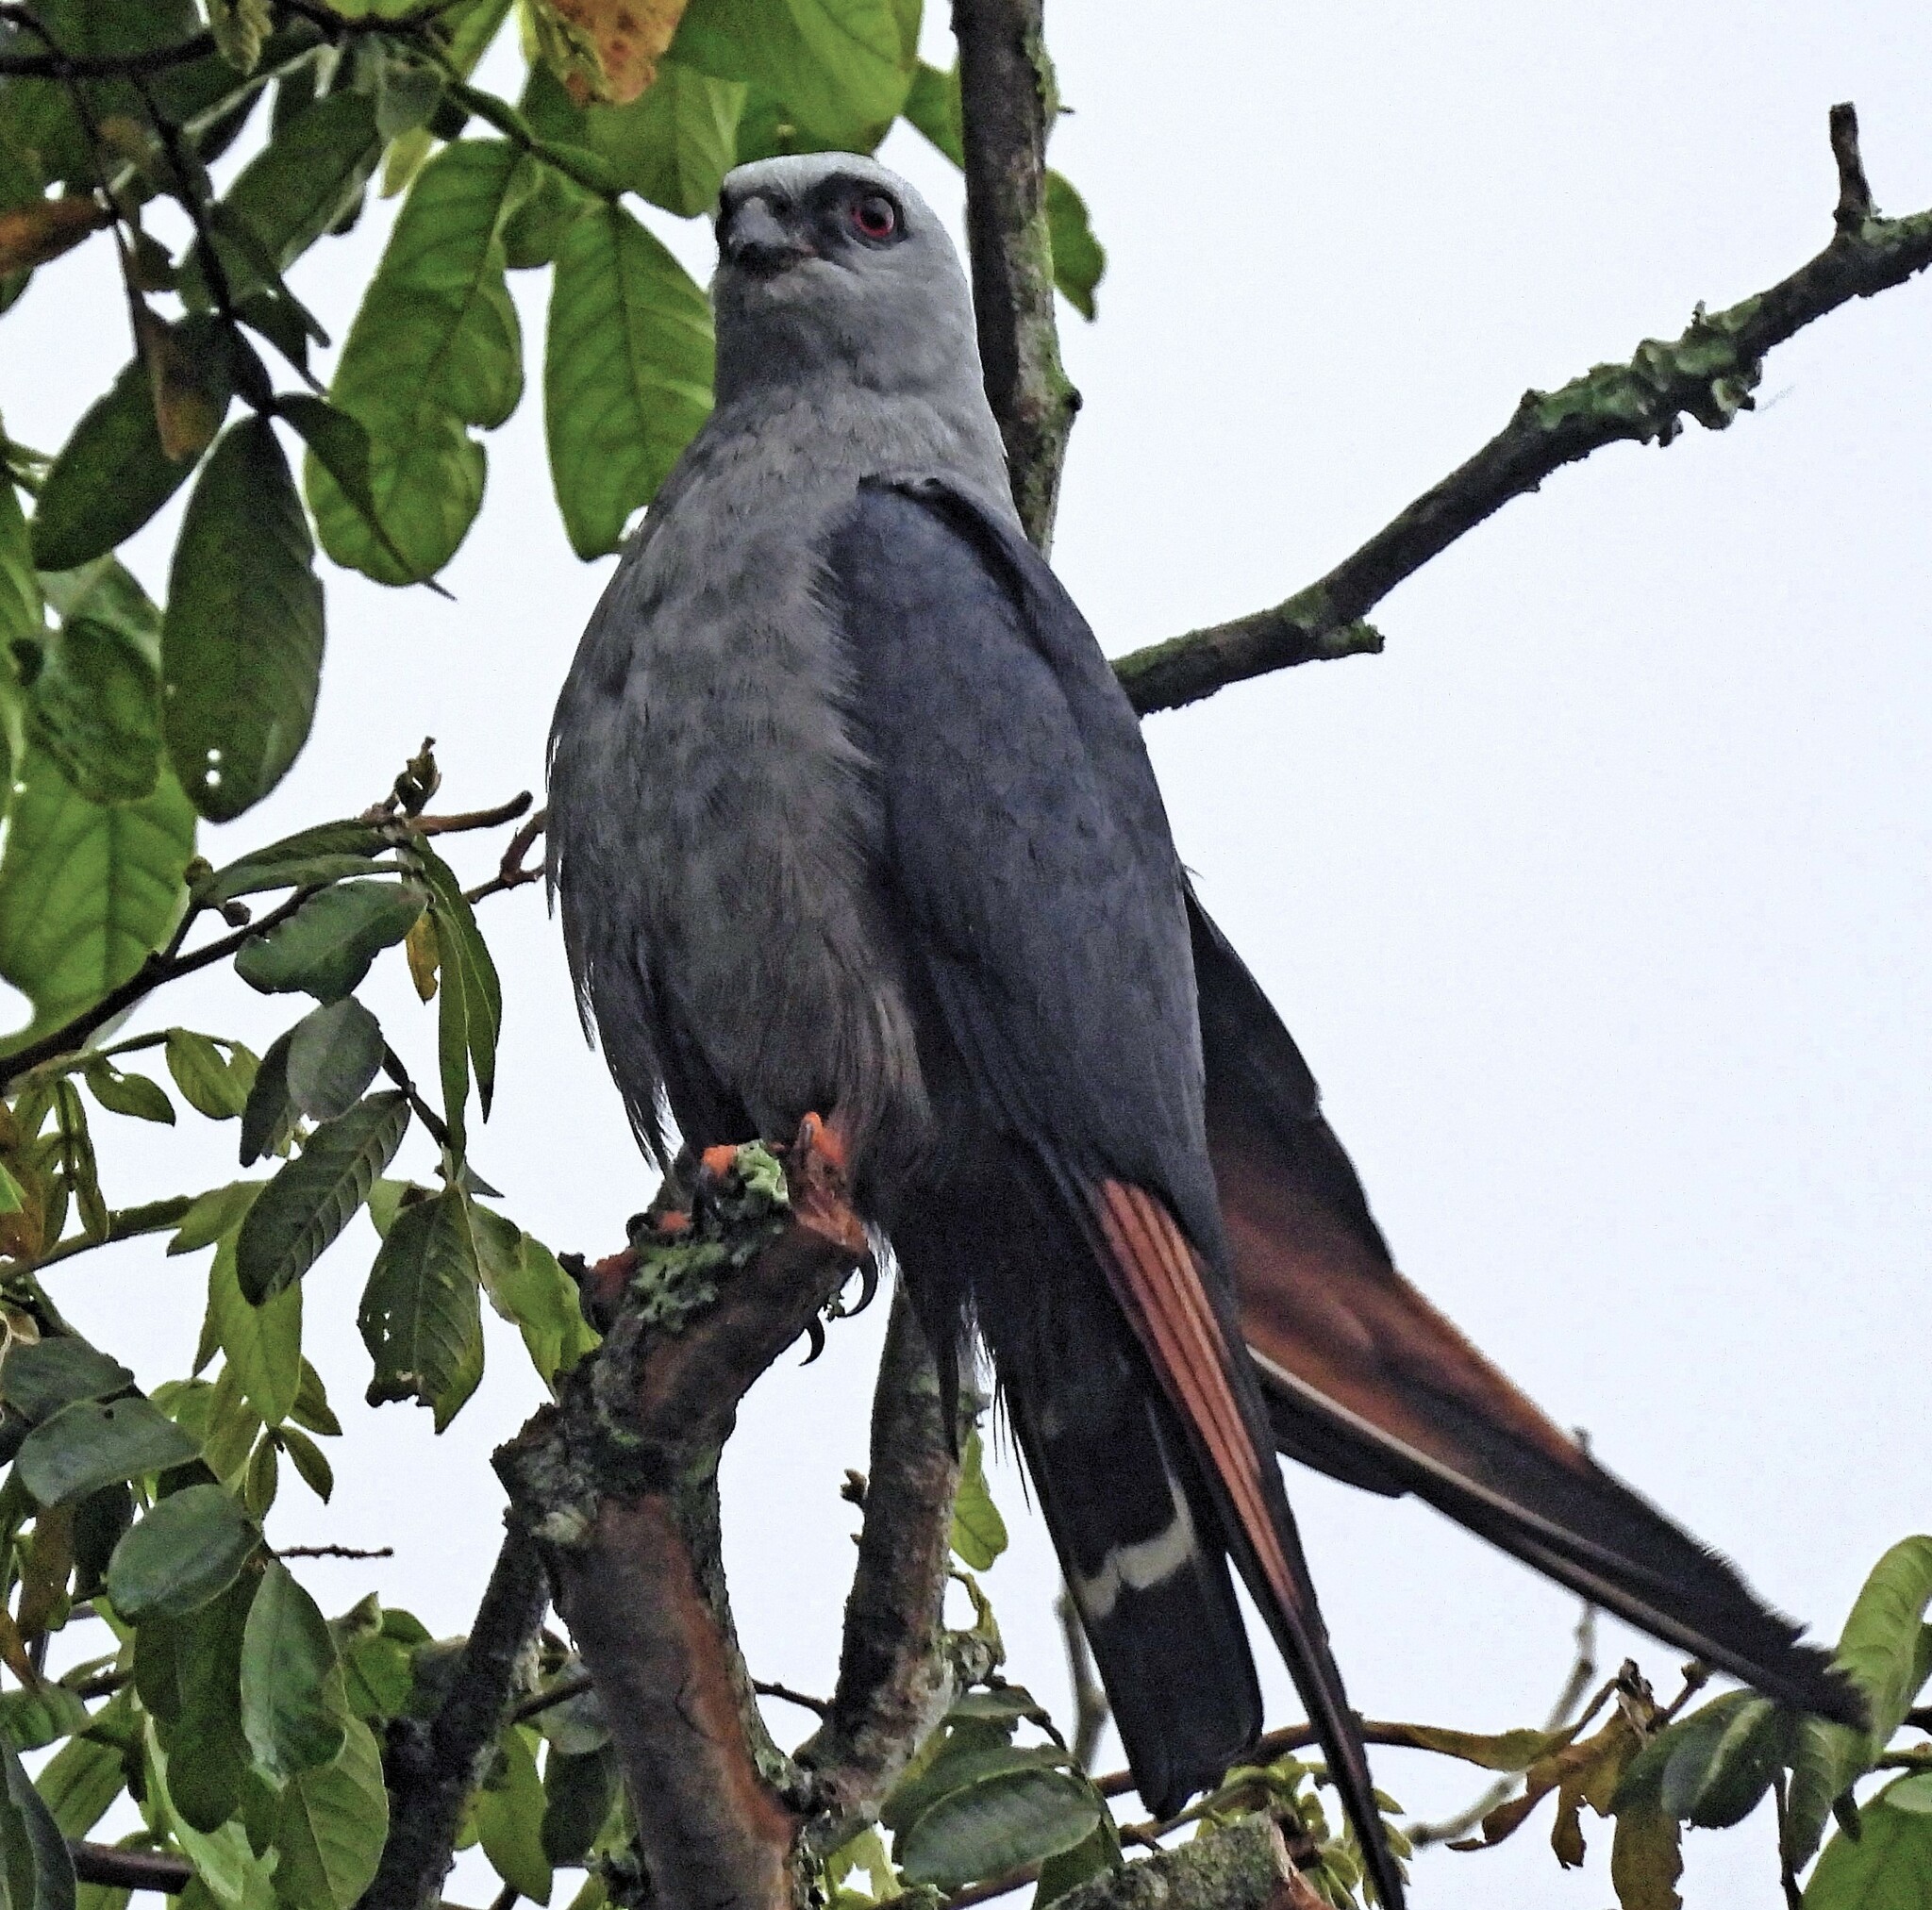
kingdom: Animalia
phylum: Chordata
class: Aves
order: Accipitriformes
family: Accipitridae
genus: Ictinia
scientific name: Ictinia plumbea
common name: Plumbeous kite
